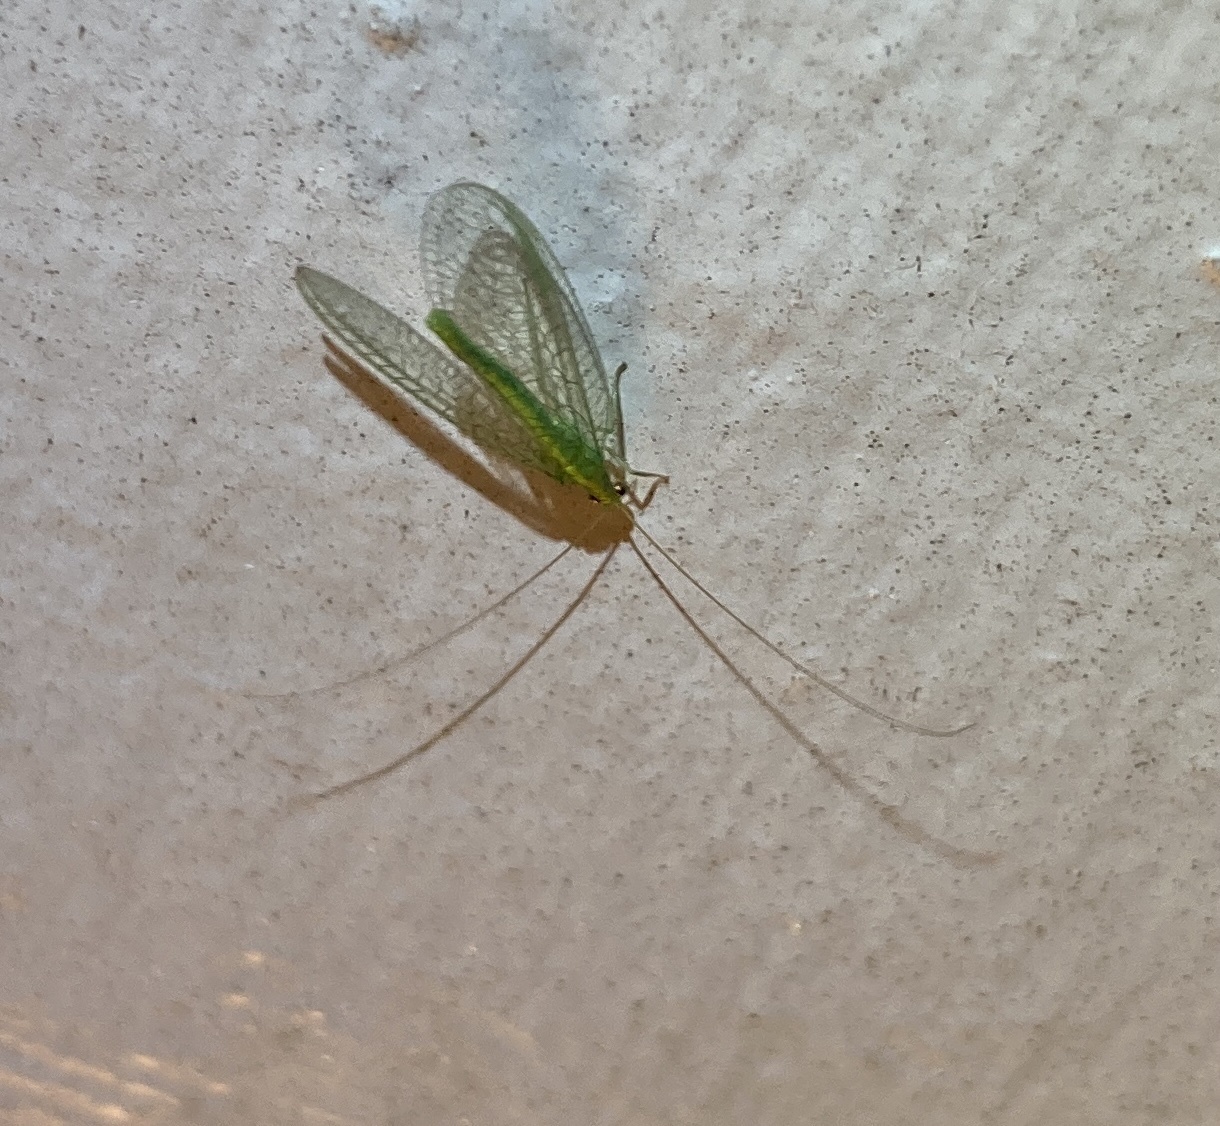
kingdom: Animalia
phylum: Arthropoda
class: Insecta
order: Neuroptera
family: Chrysopidae
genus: Mallada
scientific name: Mallada basalis
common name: Green lacewing
